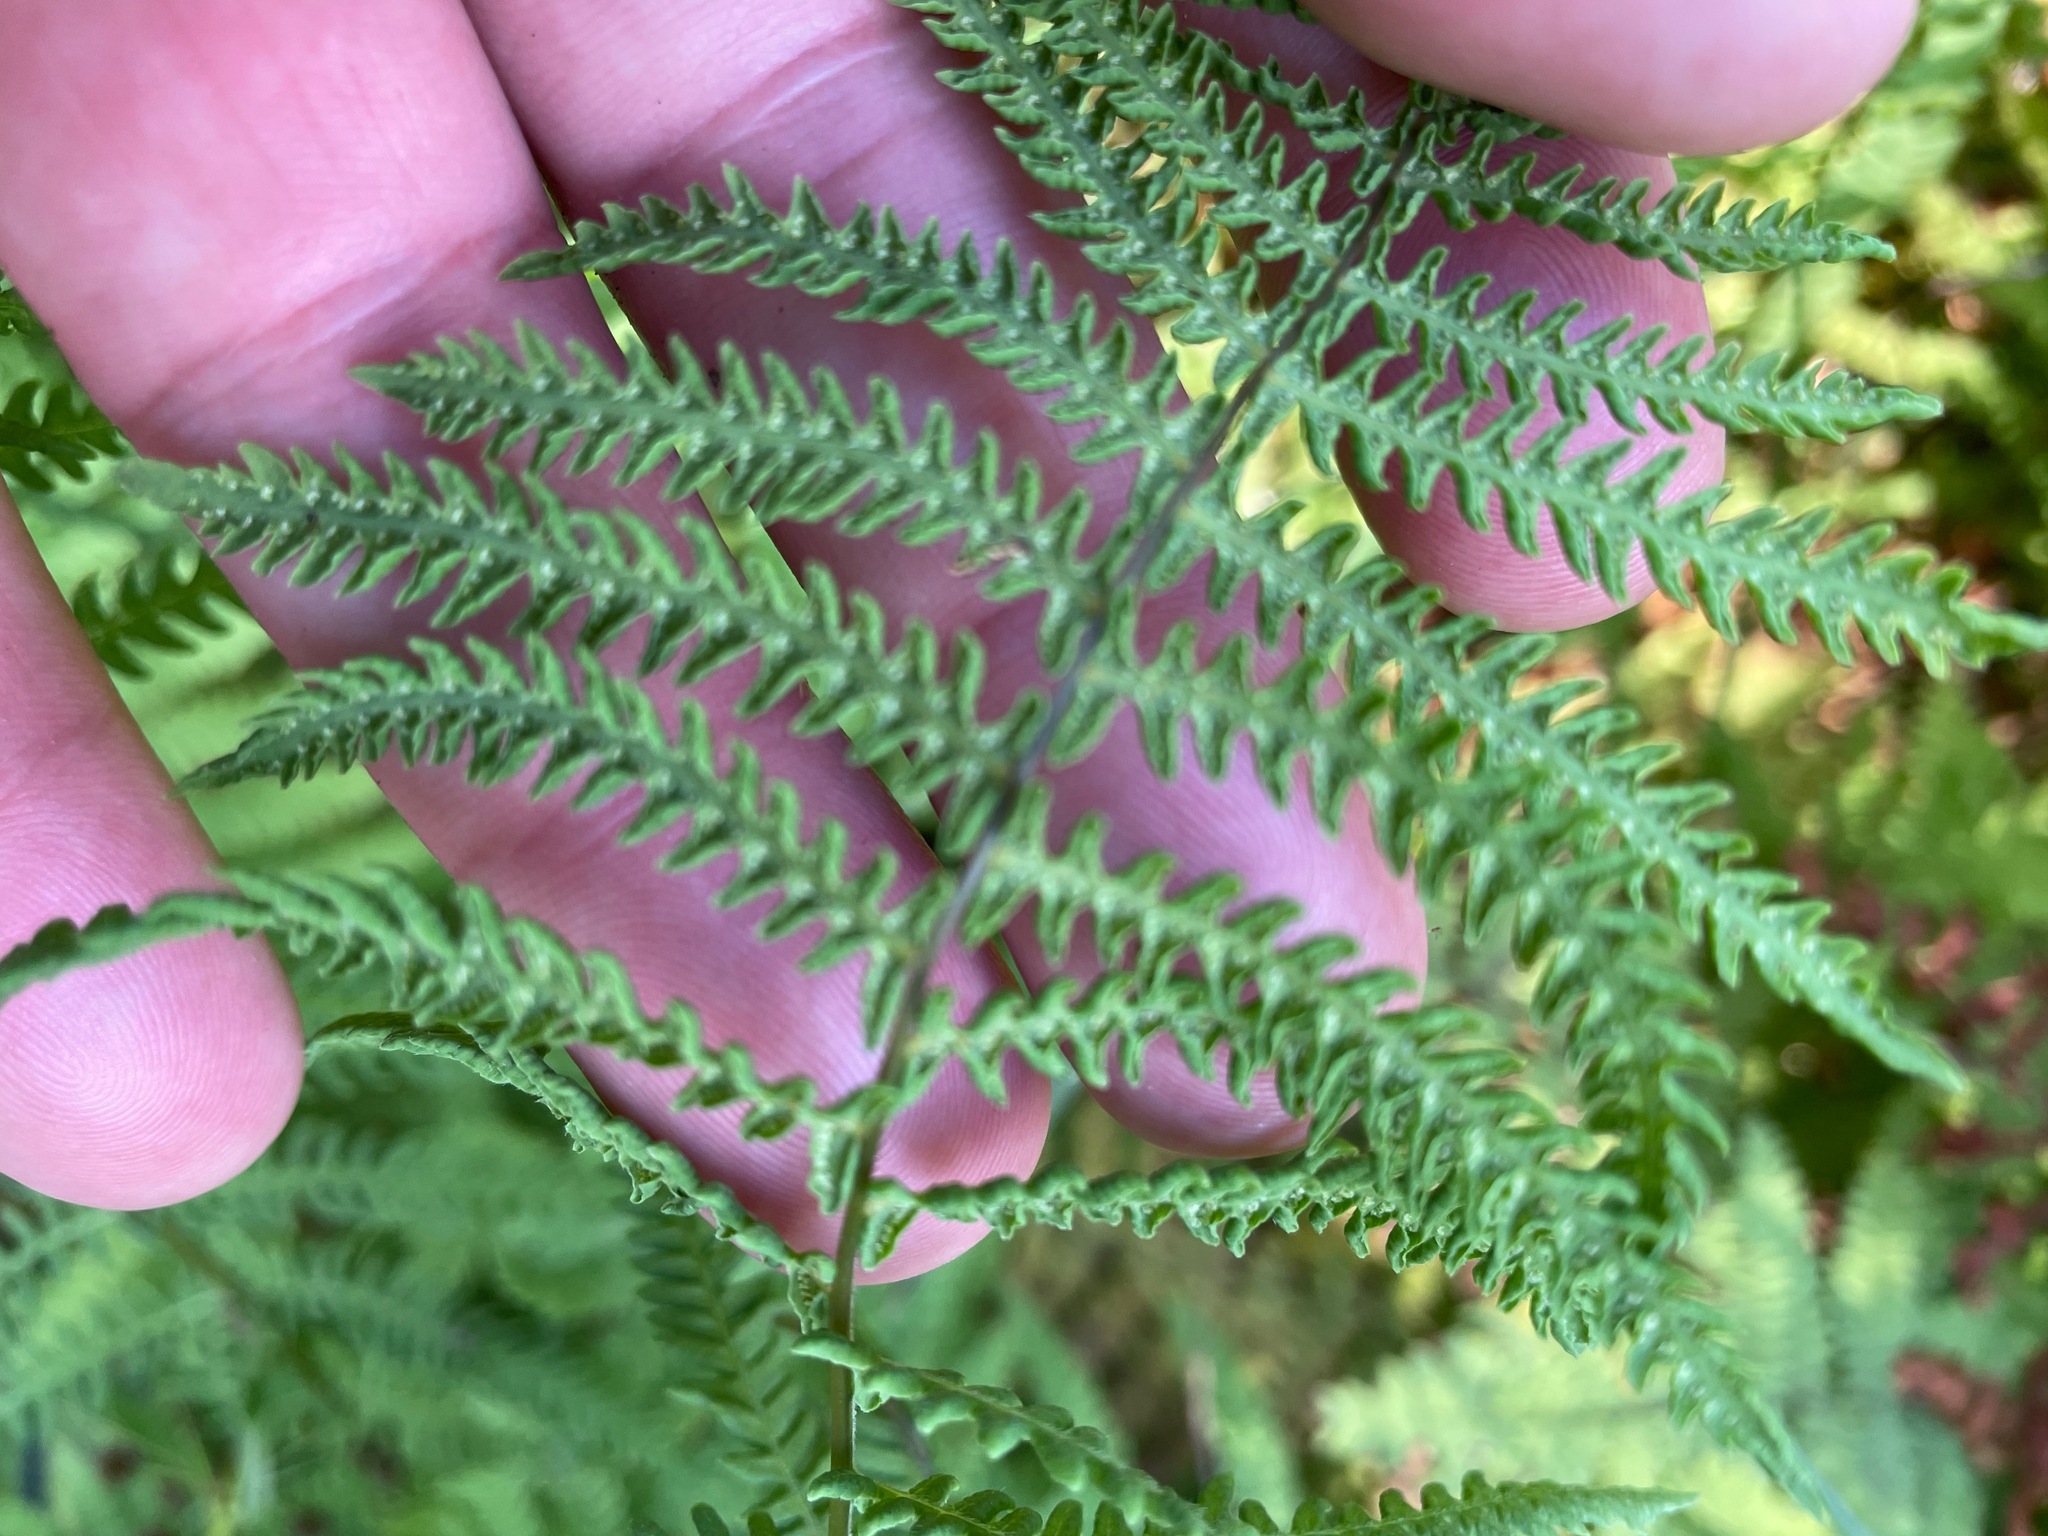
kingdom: Plantae
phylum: Tracheophyta
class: Polypodiopsida
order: Polypodiales
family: Thelypteridaceae
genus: Thelypteris
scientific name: Thelypteris palustris
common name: Marsh fern
